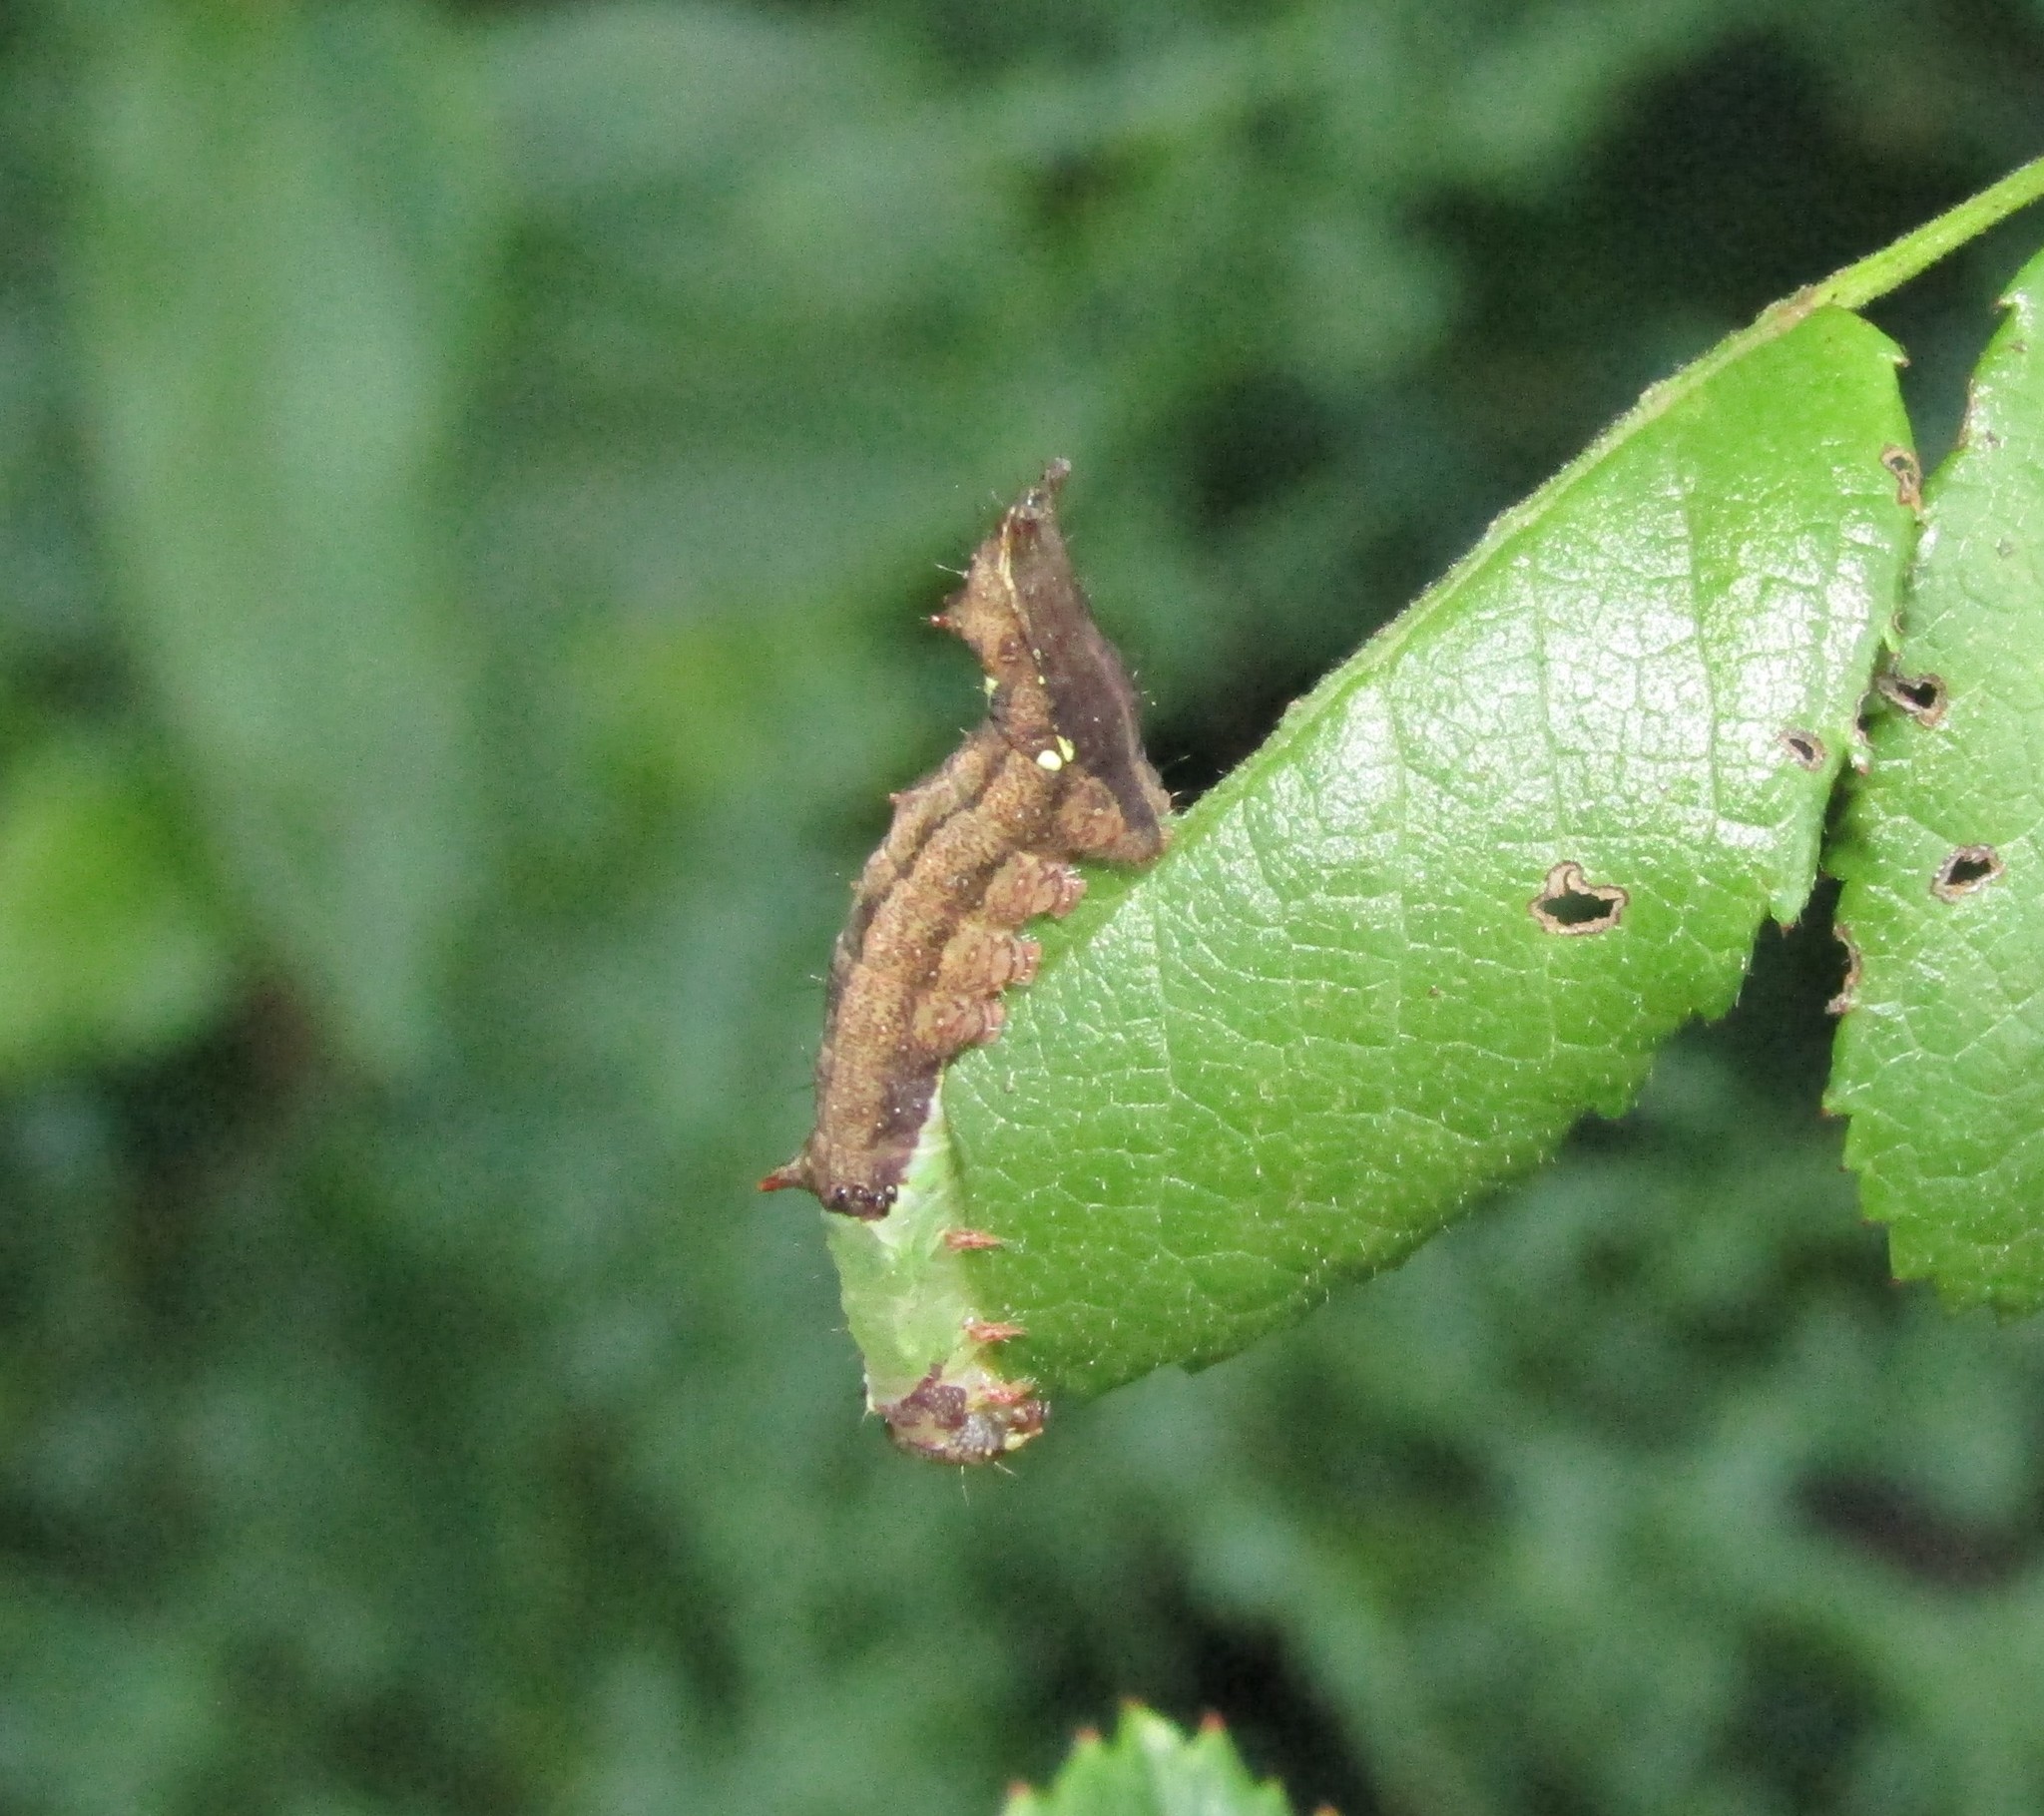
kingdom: Animalia
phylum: Arthropoda
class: Insecta
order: Lepidoptera
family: Notodontidae
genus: Schizura
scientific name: Schizura
